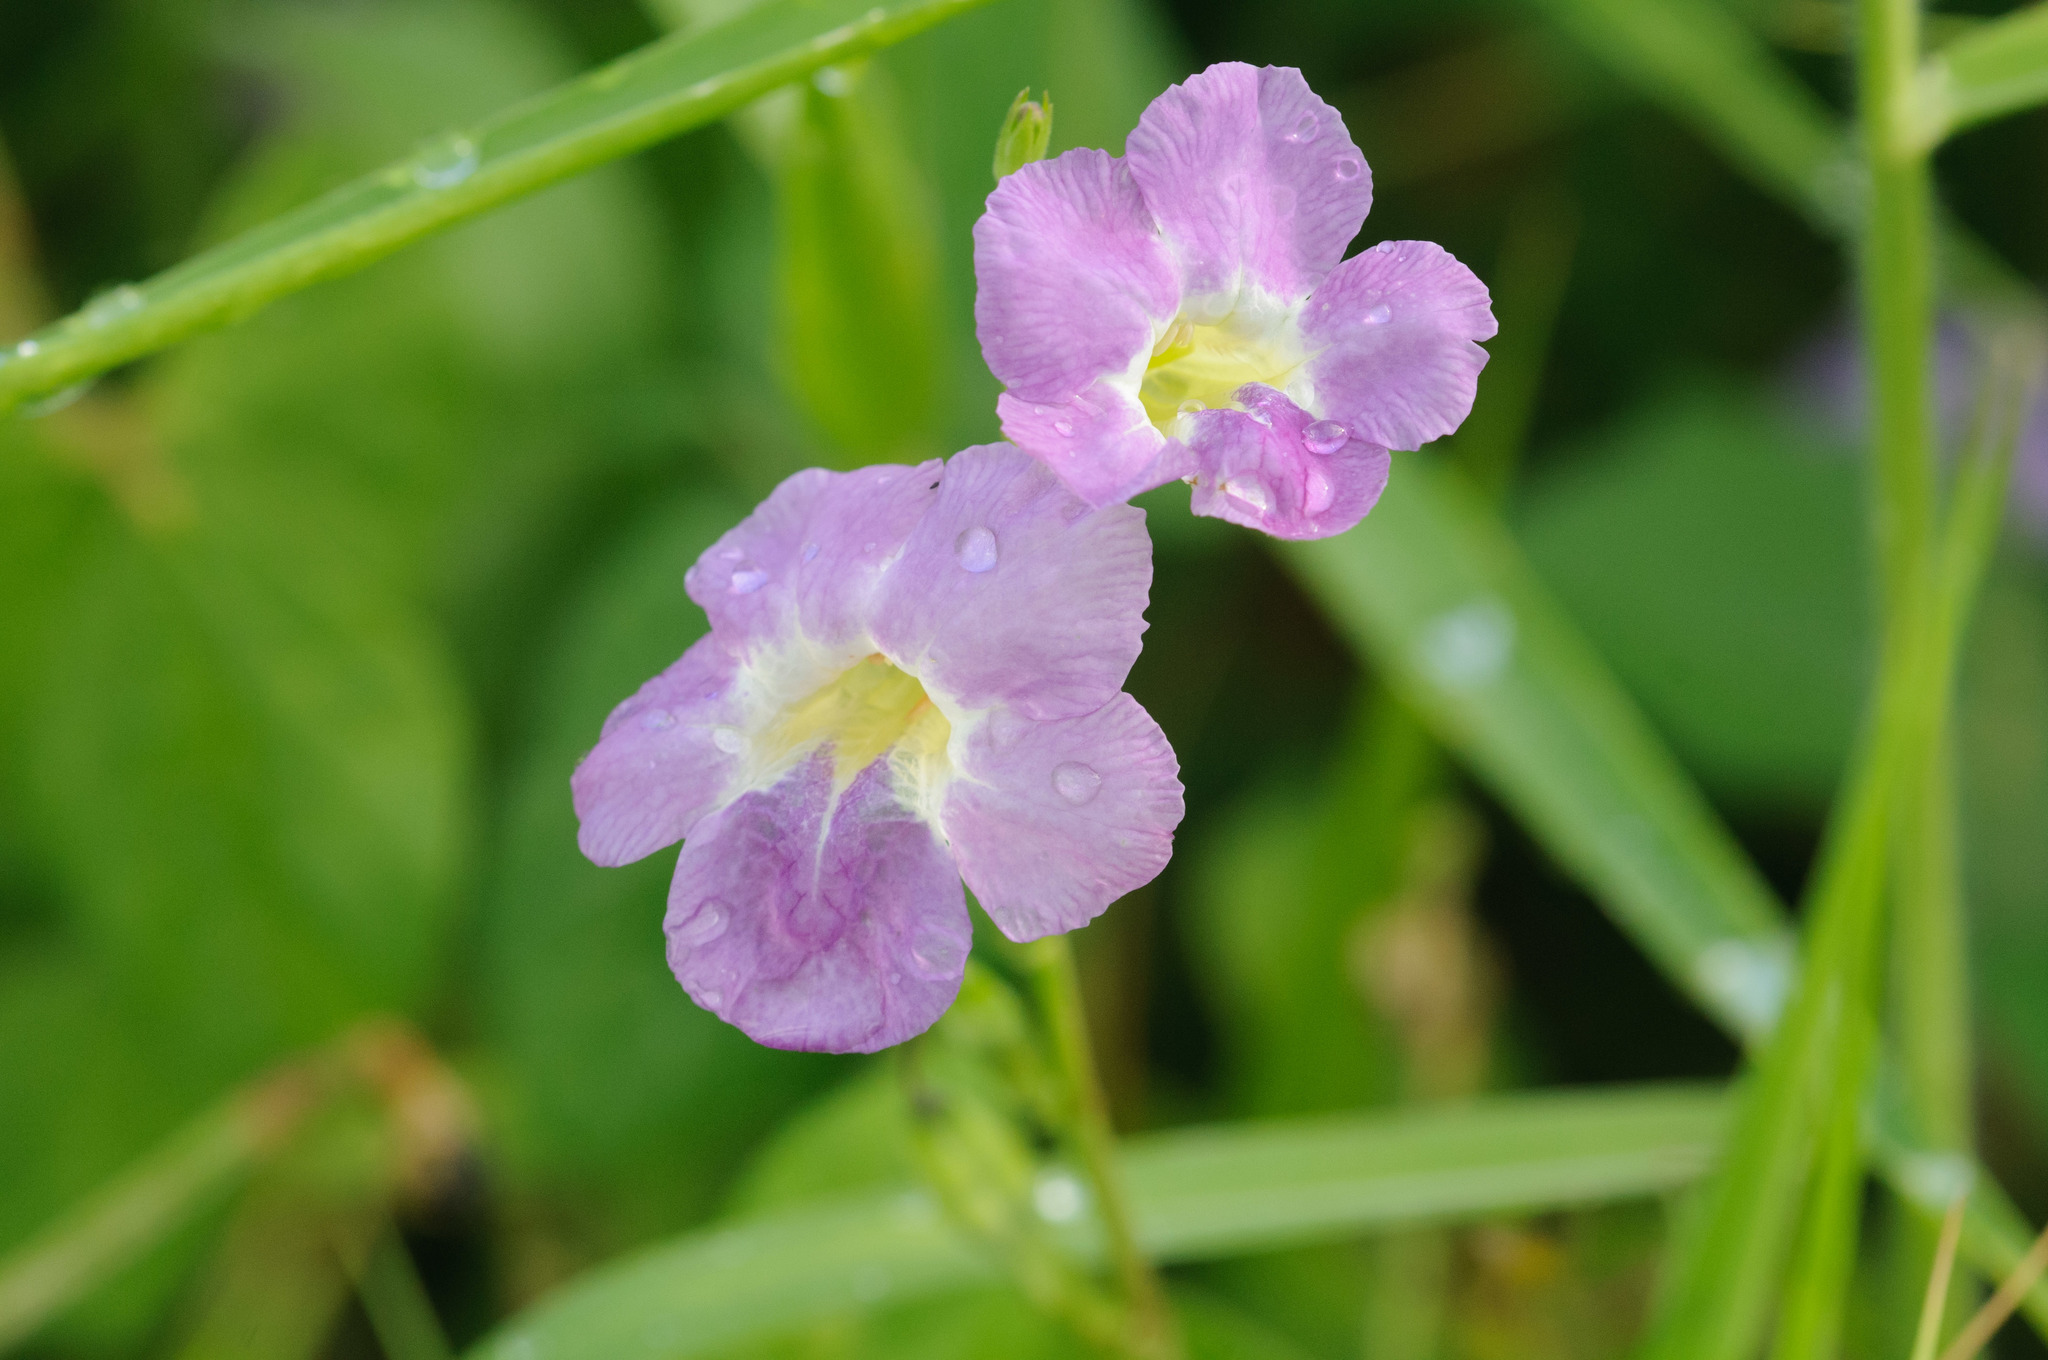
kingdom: Plantae
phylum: Tracheophyta
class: Magnoliopsida
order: Lamiales
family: Acanthaceae
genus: Asystasia
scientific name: Asystasia gangetica
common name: Chinese violet
